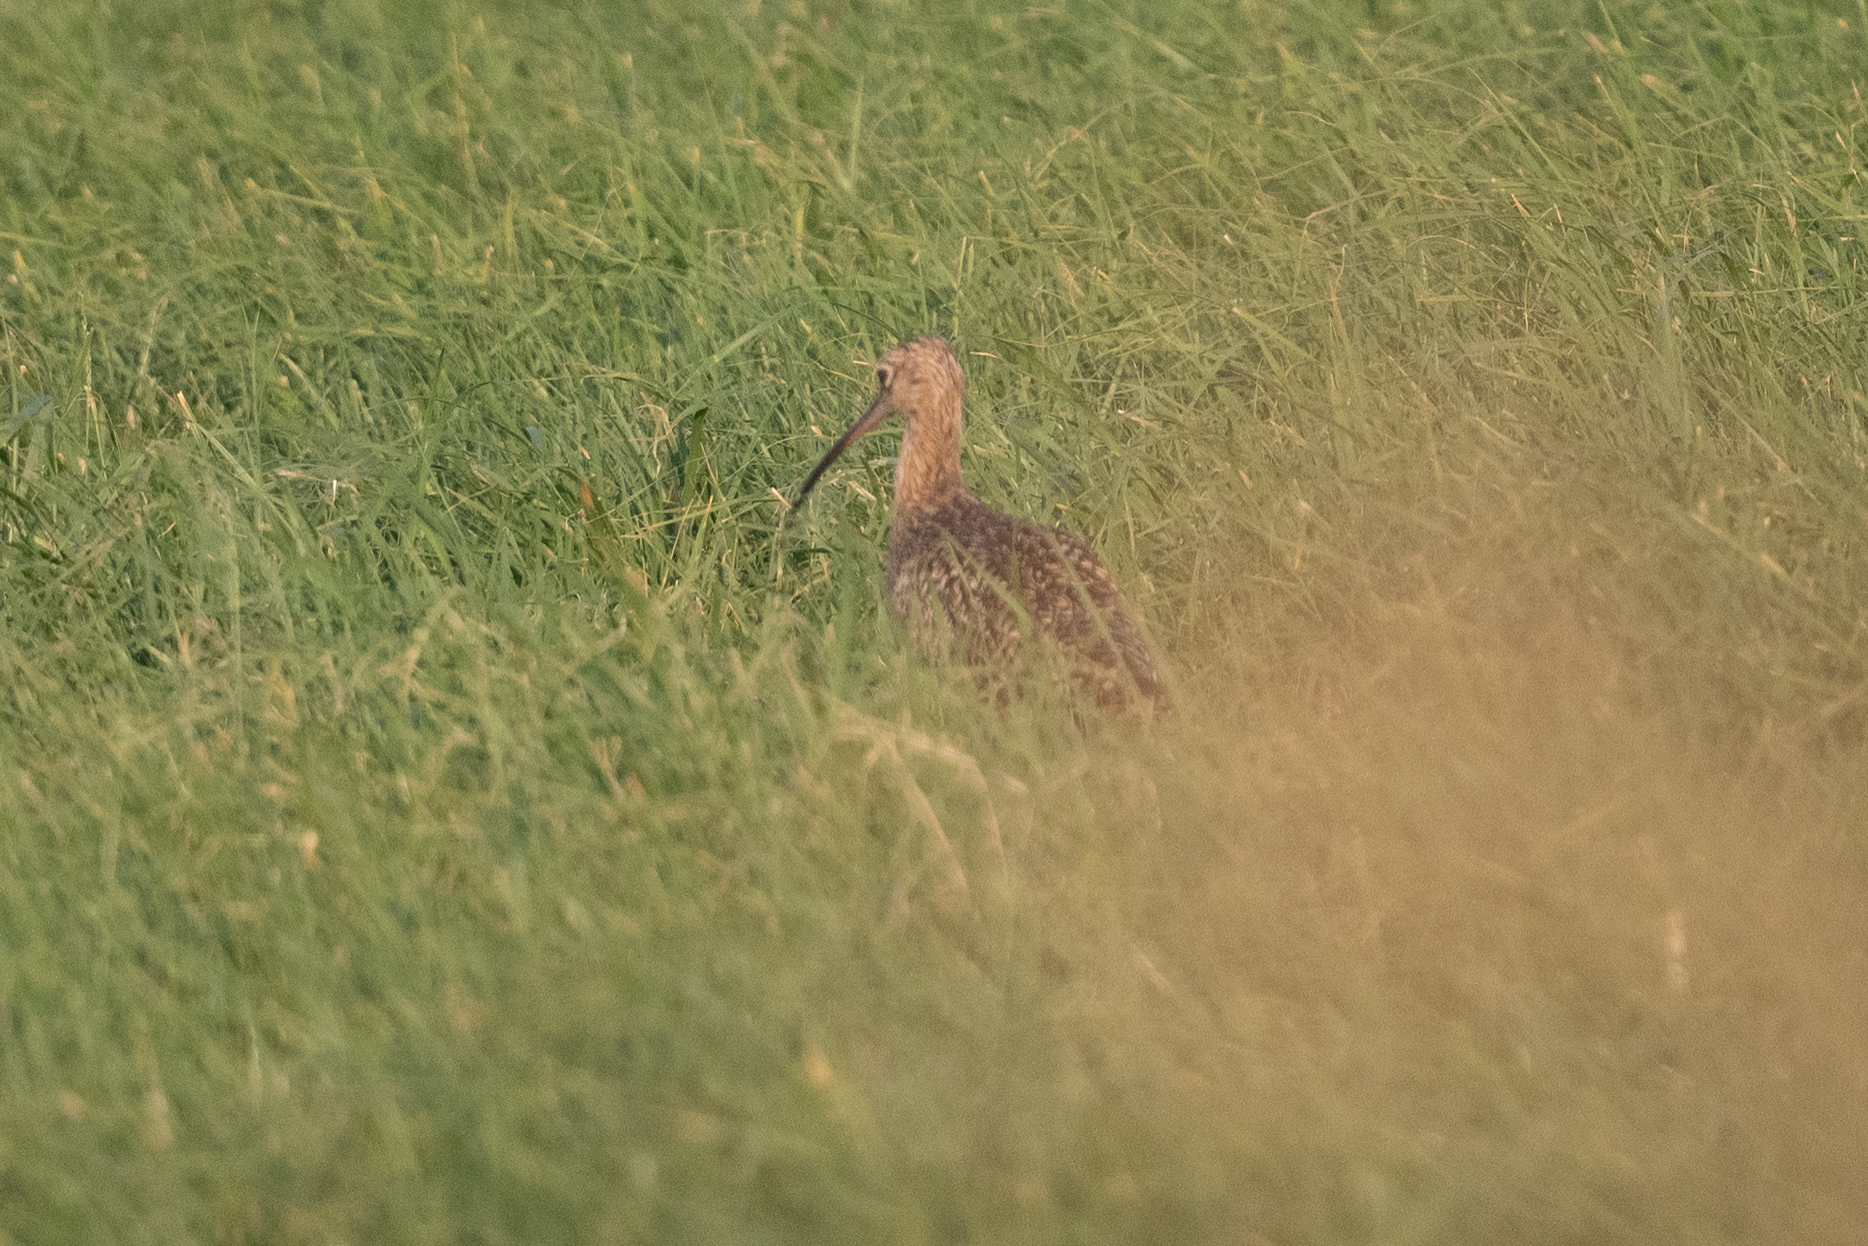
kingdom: Animalia
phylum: Chordata
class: Aves
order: Charadriiformes
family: Scolopacidae
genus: Numenius
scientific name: Numenius americanus
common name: Long-billed curlew
